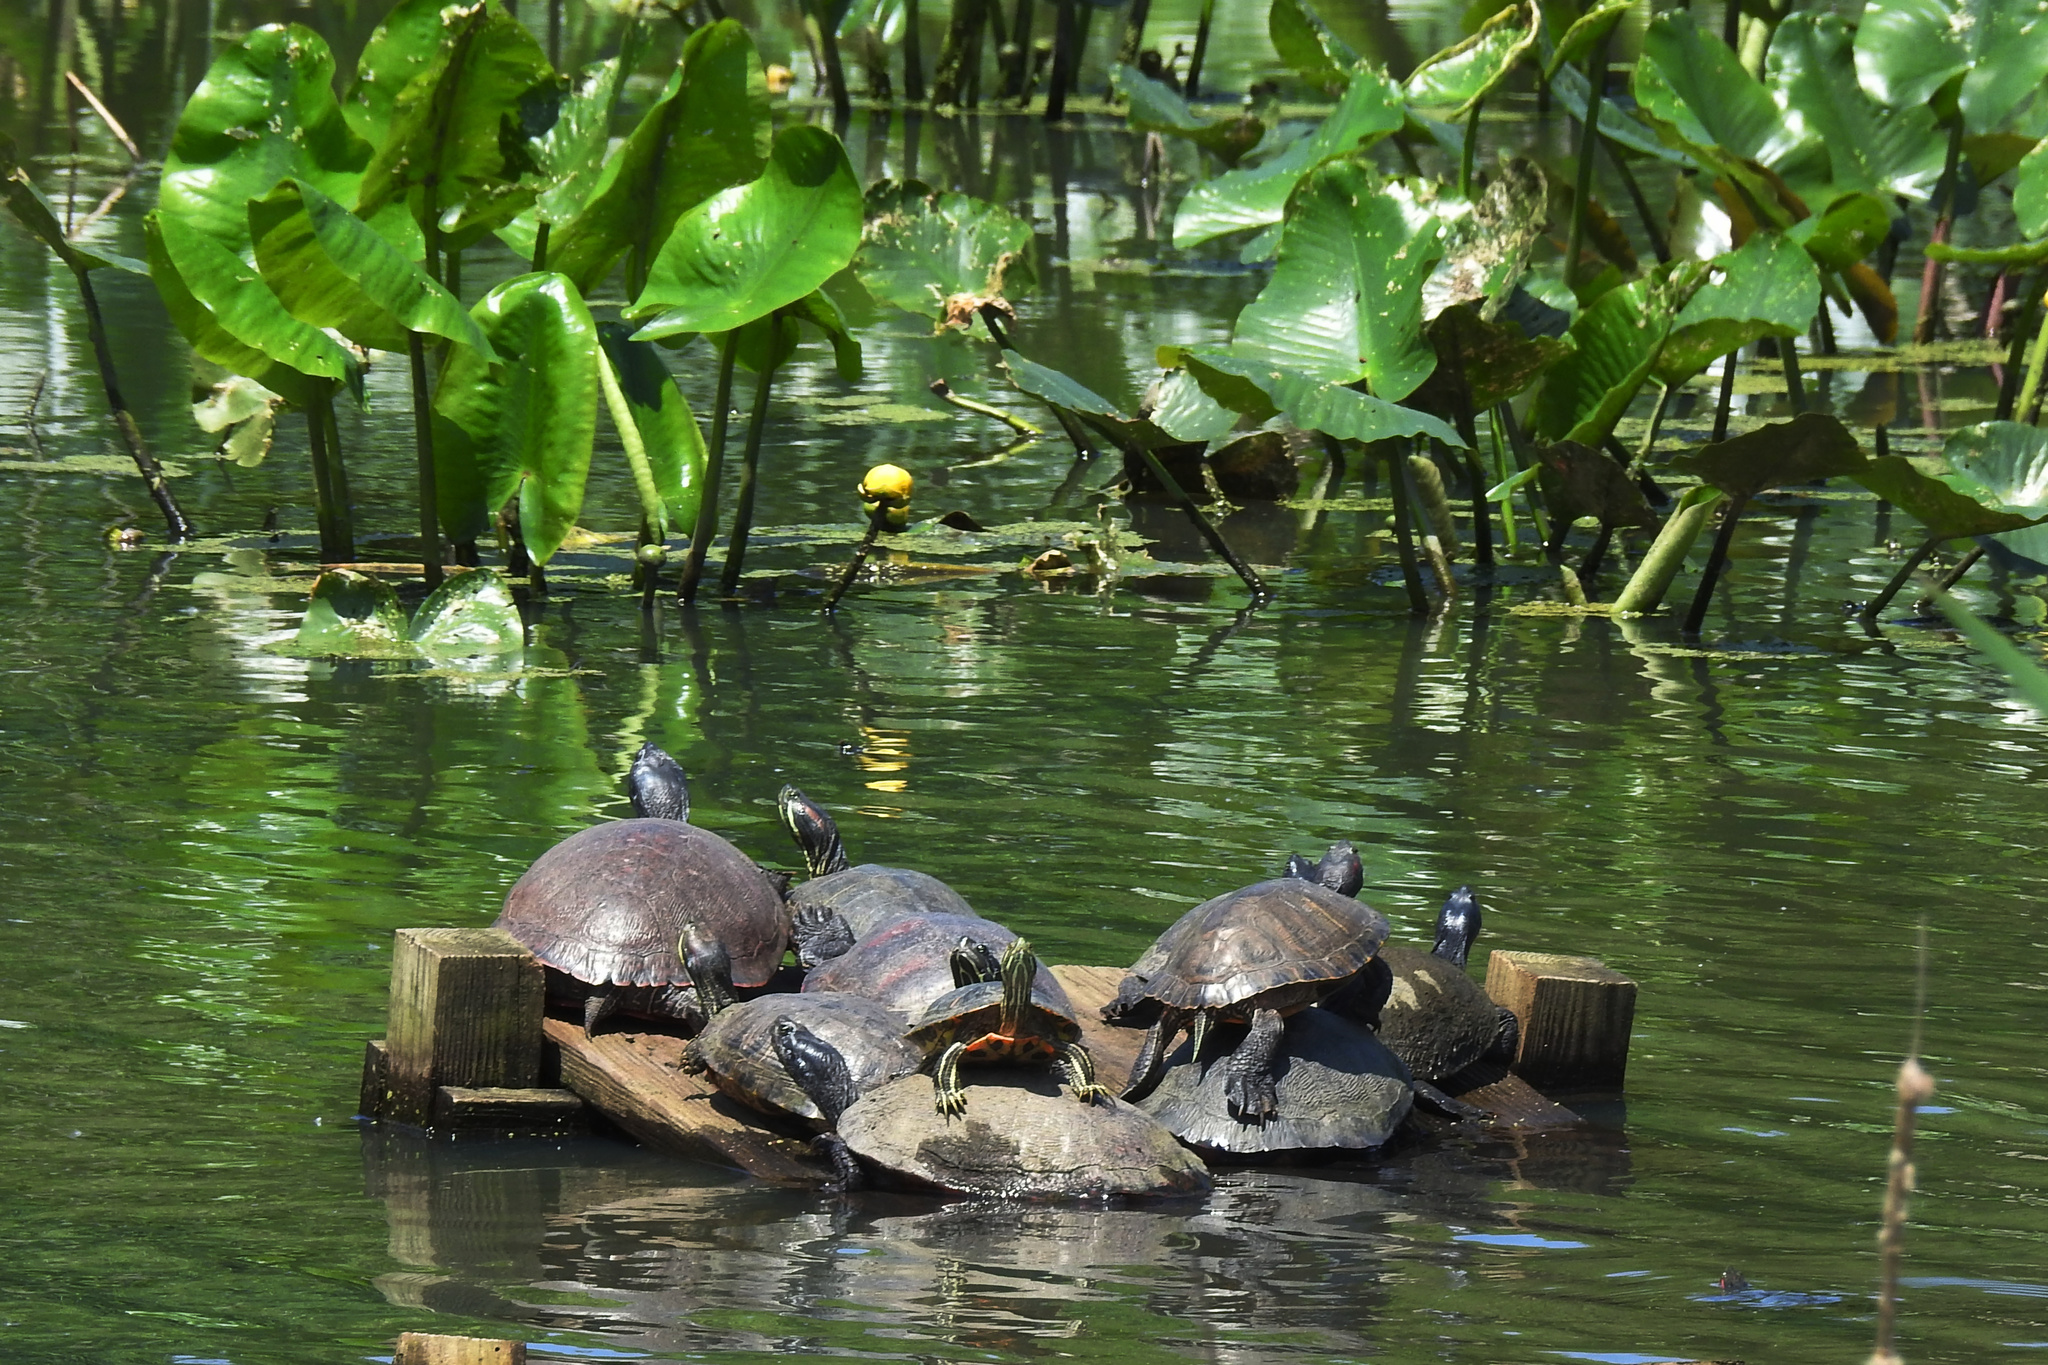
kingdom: Animalia
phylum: Chordata
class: Testudines
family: Emydidae
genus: Trachemys
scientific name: Trachemys scripta
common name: Slider
